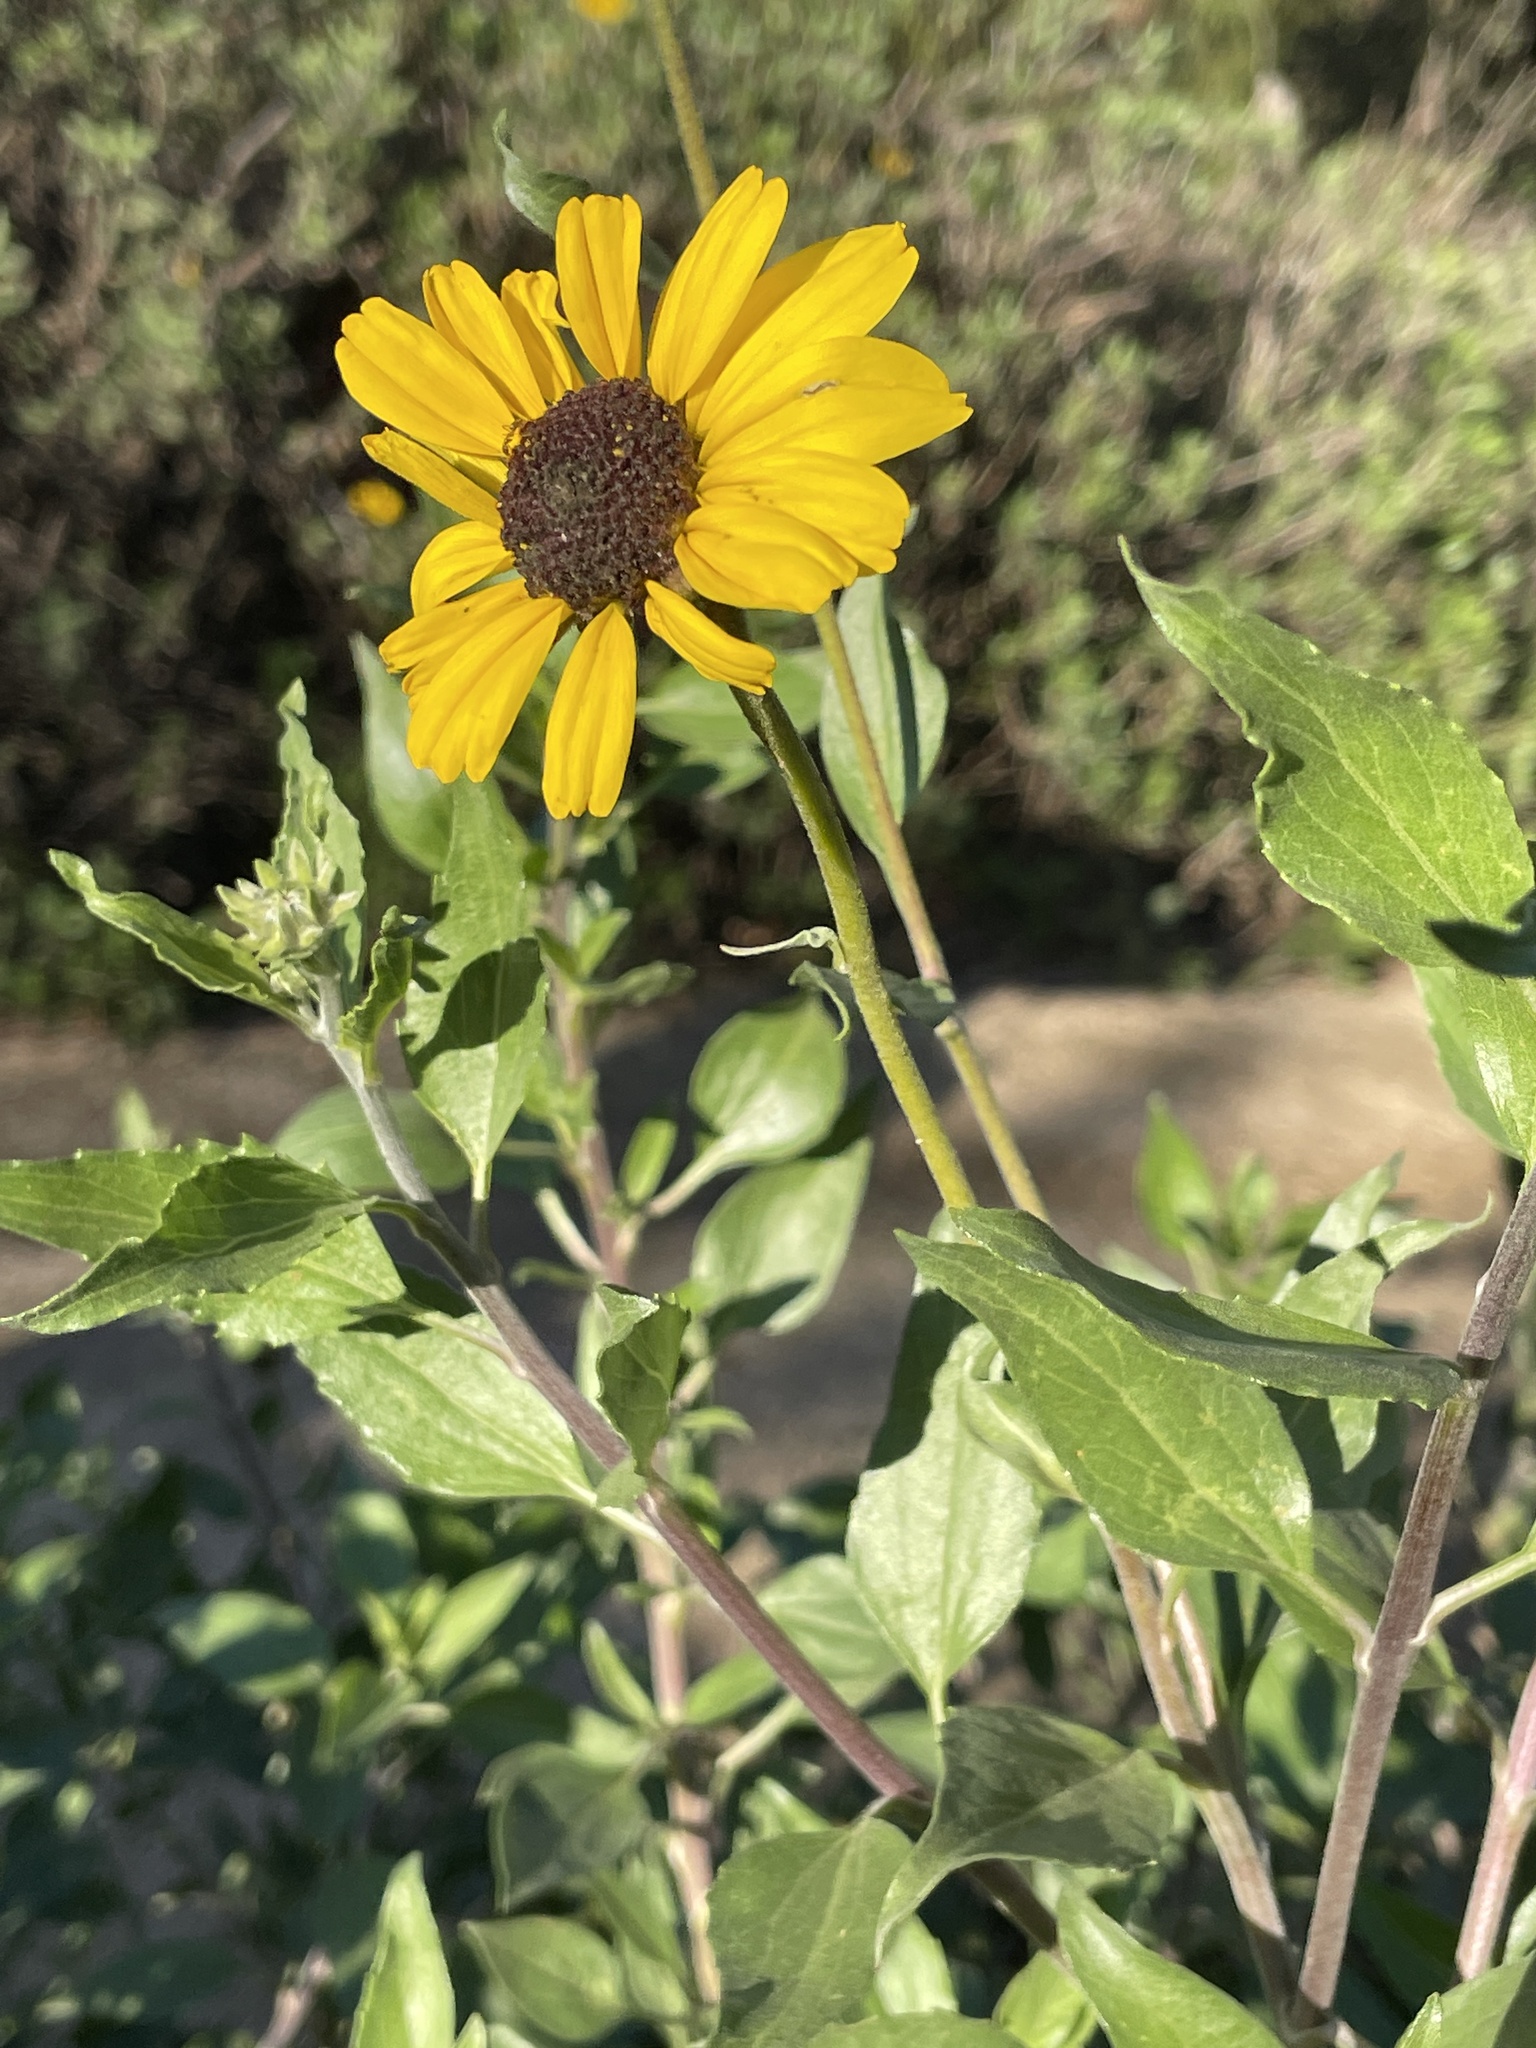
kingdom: Plantae
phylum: Tracheophyta
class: Magnoliopsida
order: Asterales
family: Asteraceae
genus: Encelia
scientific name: Encelia californica
